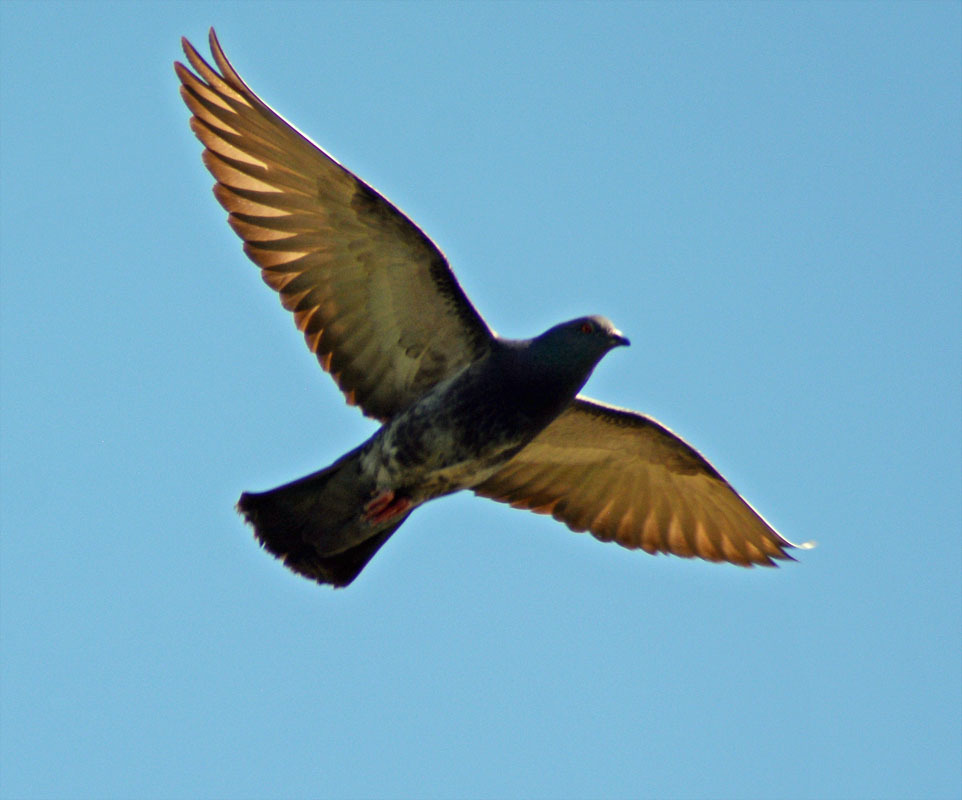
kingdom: Animalia
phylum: Chordata
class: Aves
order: Columbiformes
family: Columbidae
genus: Columba
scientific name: Columba livia
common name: Rock pigeon
